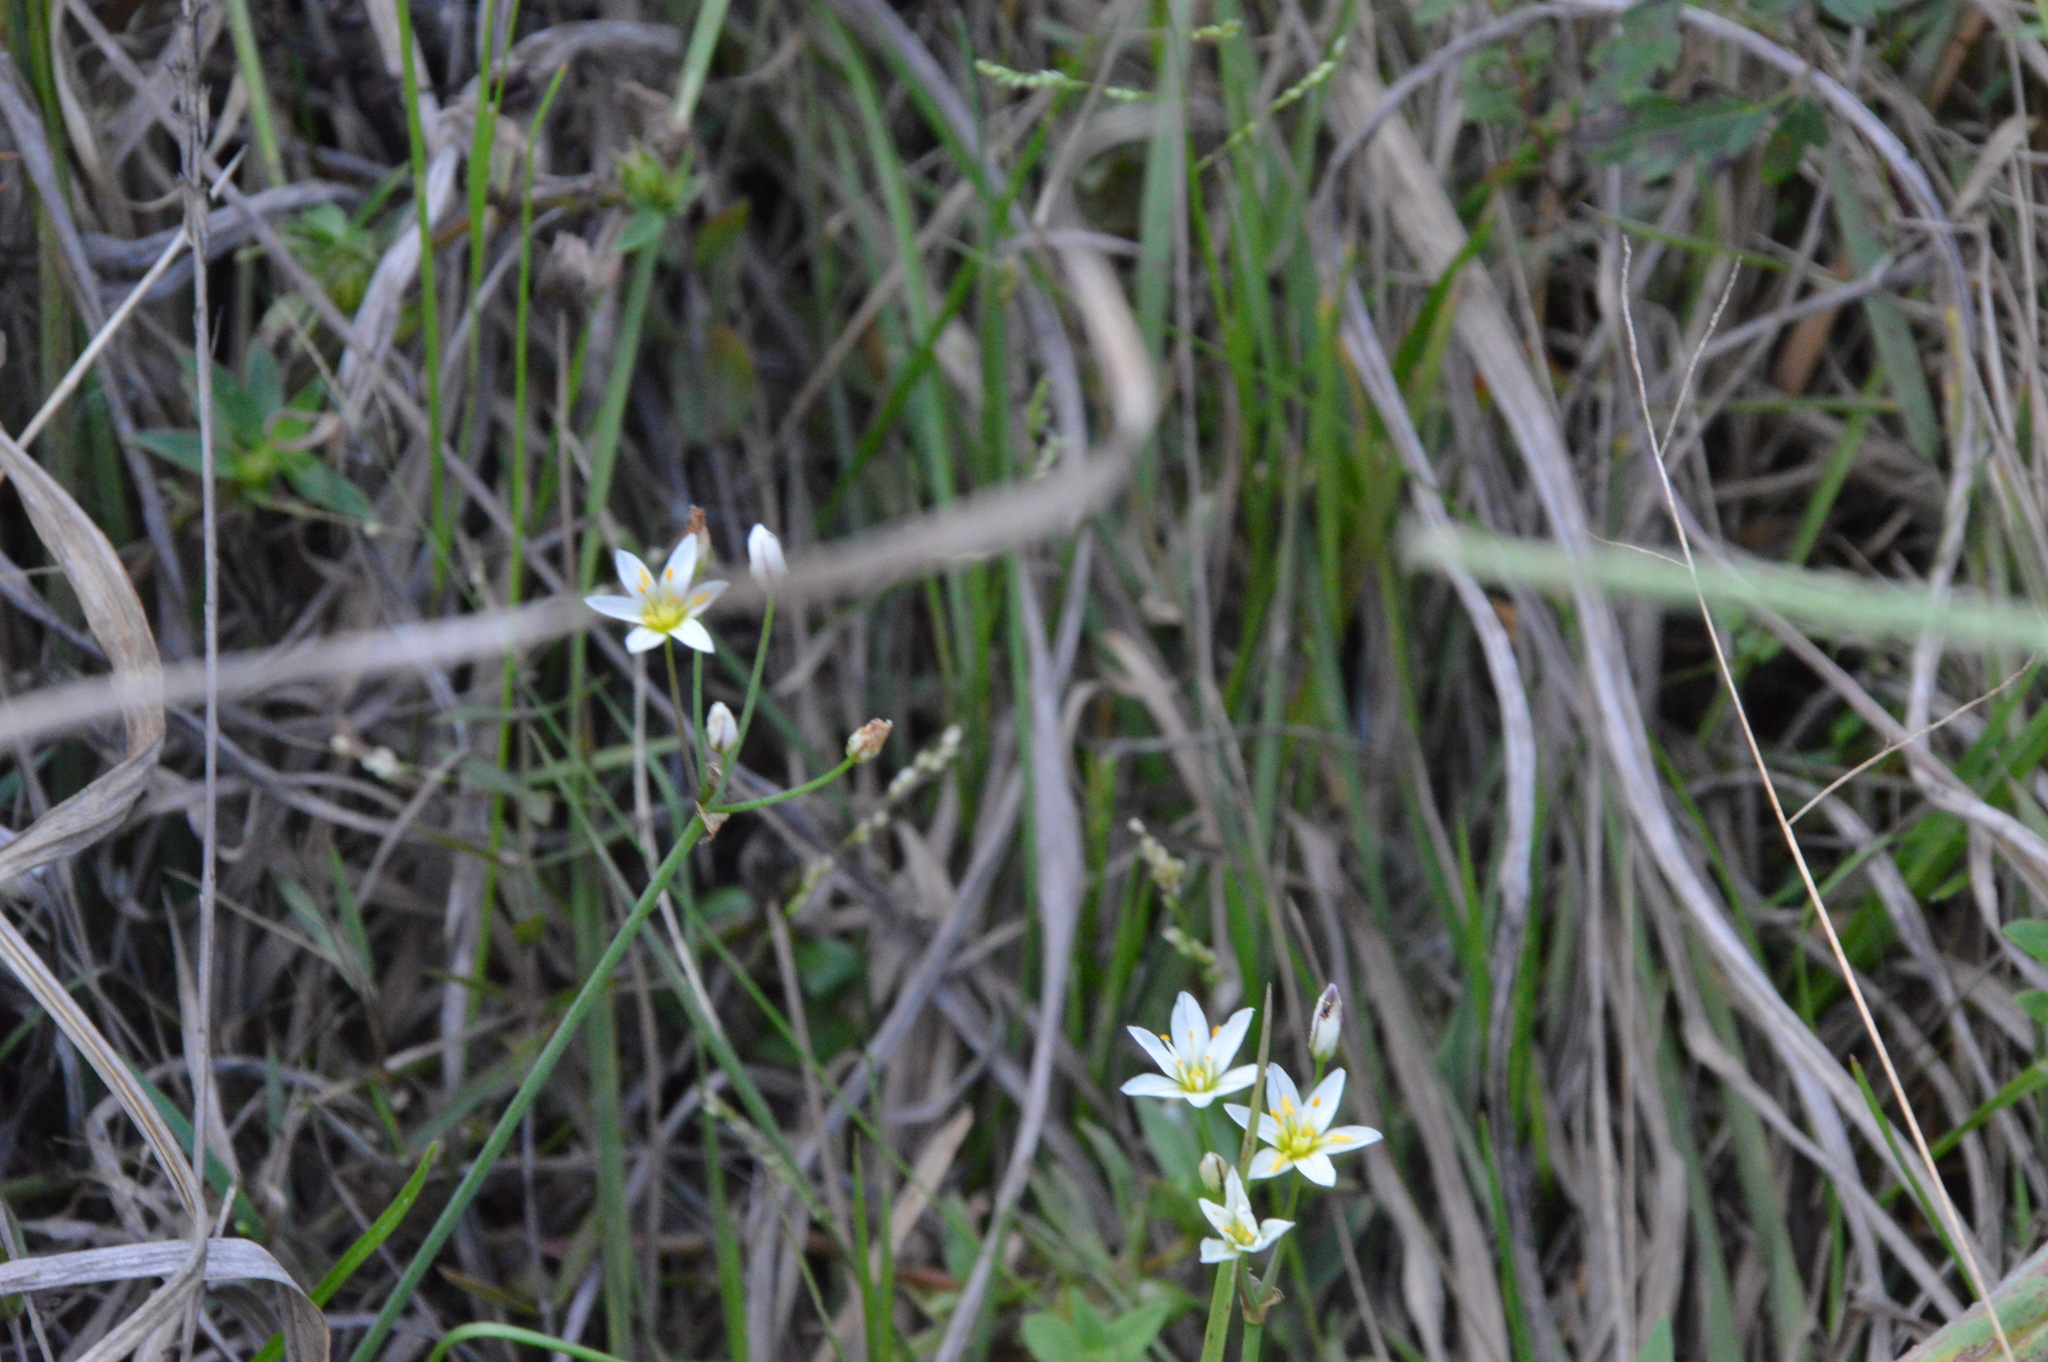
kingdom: Plantae
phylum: Tracheophyta
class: Liliopsida
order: Asparagales
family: Amaryllidaceae
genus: Nothoscordum
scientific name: Nothoscordum bivalve
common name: Crow-poison
